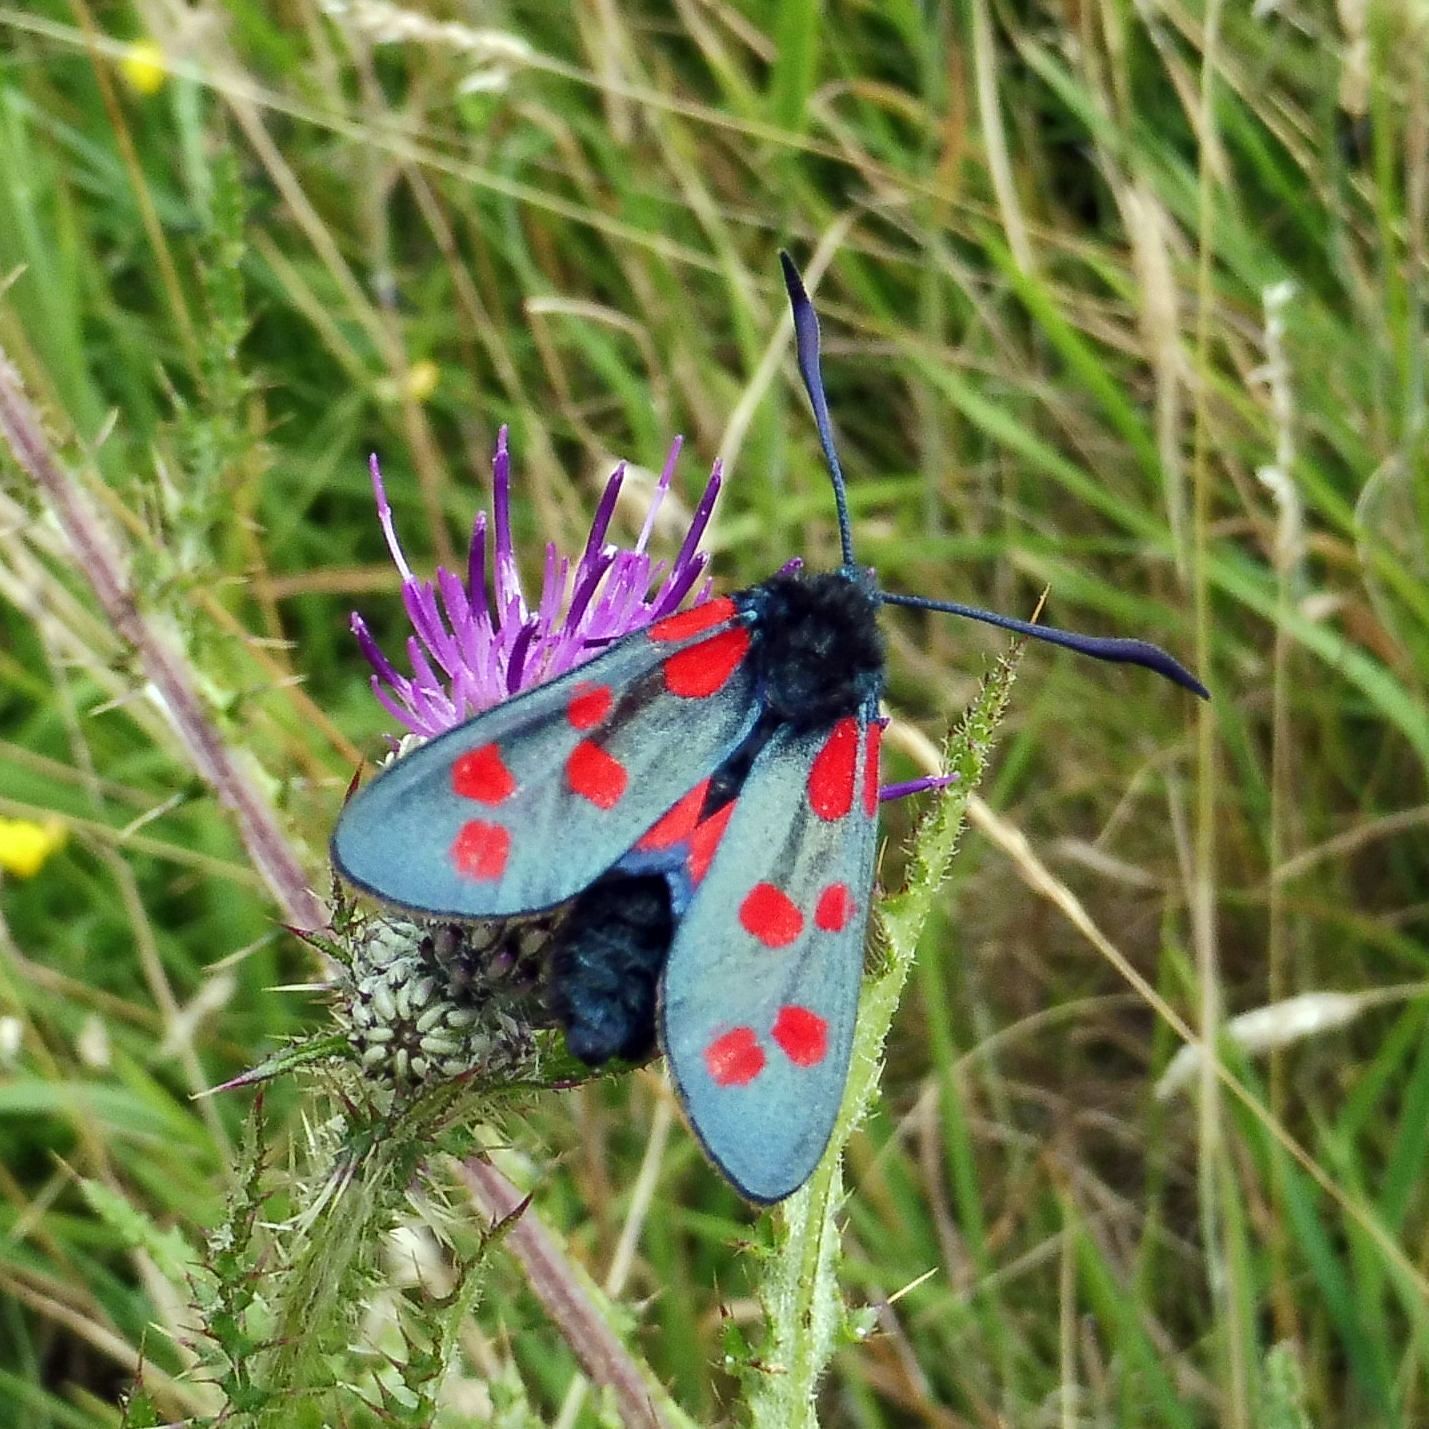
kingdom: Animalia
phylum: Arthropoda
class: Insecta
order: Lepidoptera
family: Zygaenidae
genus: Zygaena
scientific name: Zygaena filipendulae
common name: Six-spot burnet
